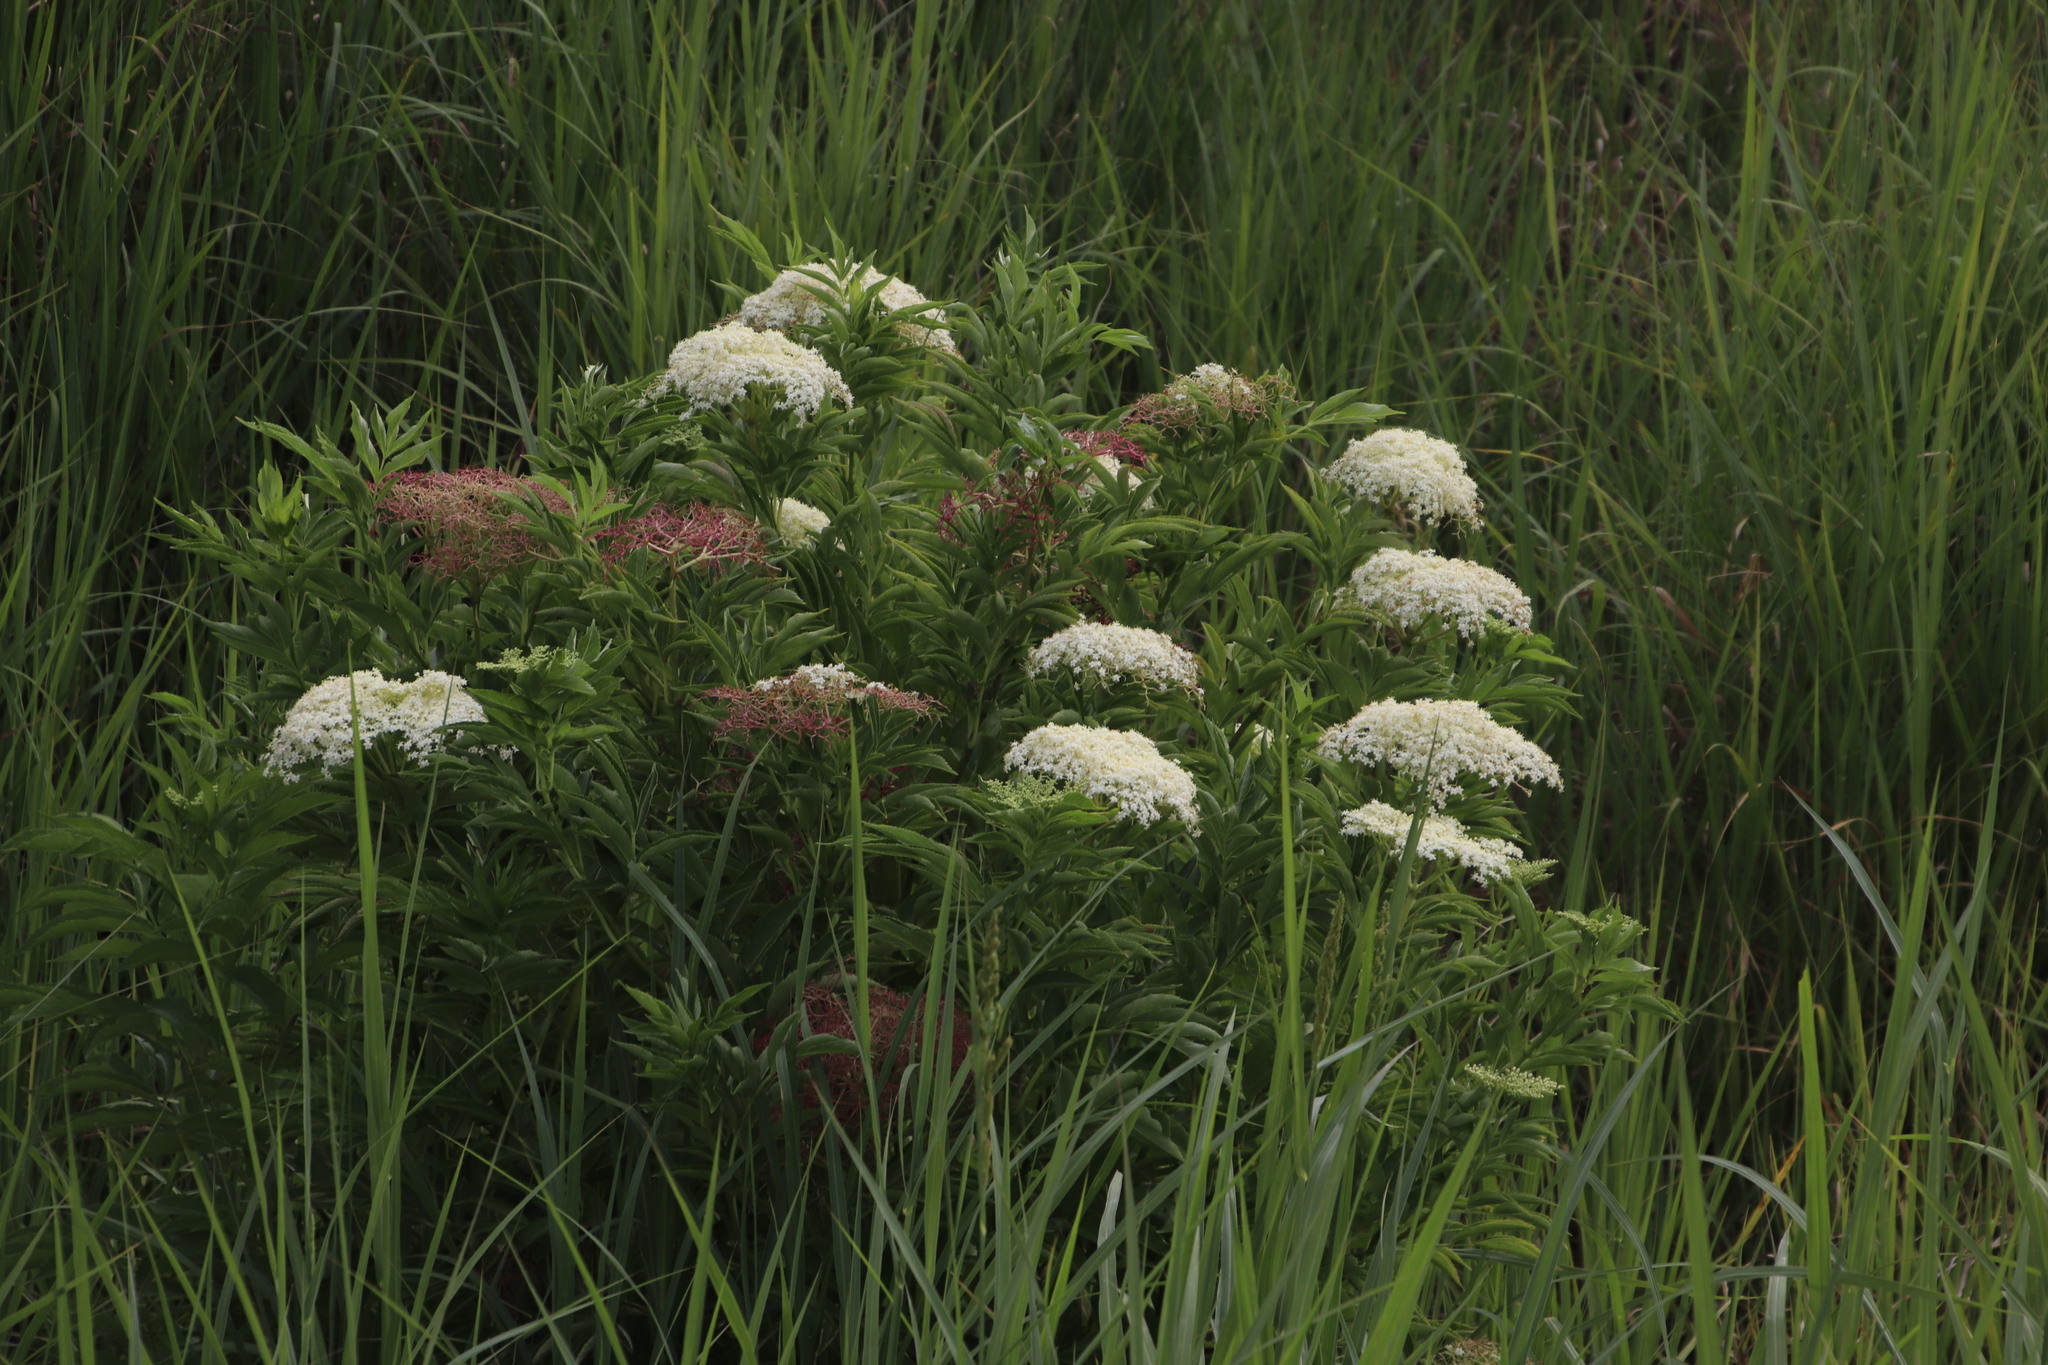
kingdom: Plantae
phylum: Tracheophyta
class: Magnoliopsida
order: Dipsacales
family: Viburnaceae
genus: Sambucus
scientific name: Sambucus nigra
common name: Elder
